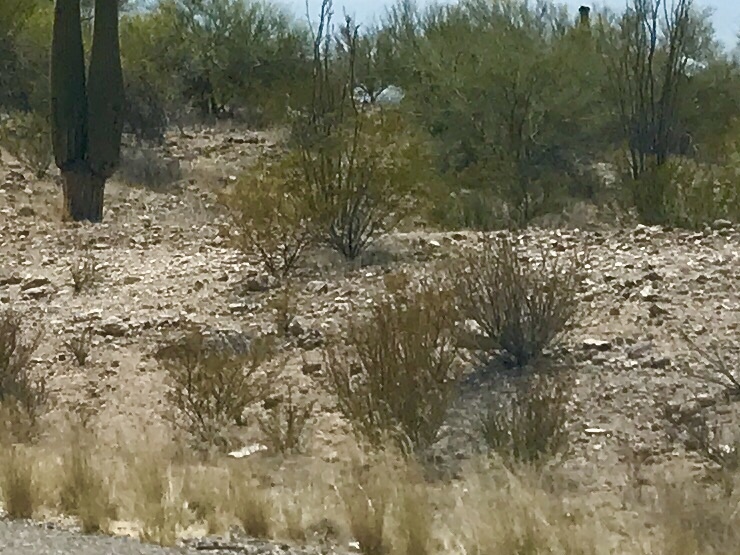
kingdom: Plantae
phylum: Tracheophyta
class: Magnoliopsida
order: Zygophyllales
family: Zygophyllaceae
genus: Larrea
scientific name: Larrea tridentata
